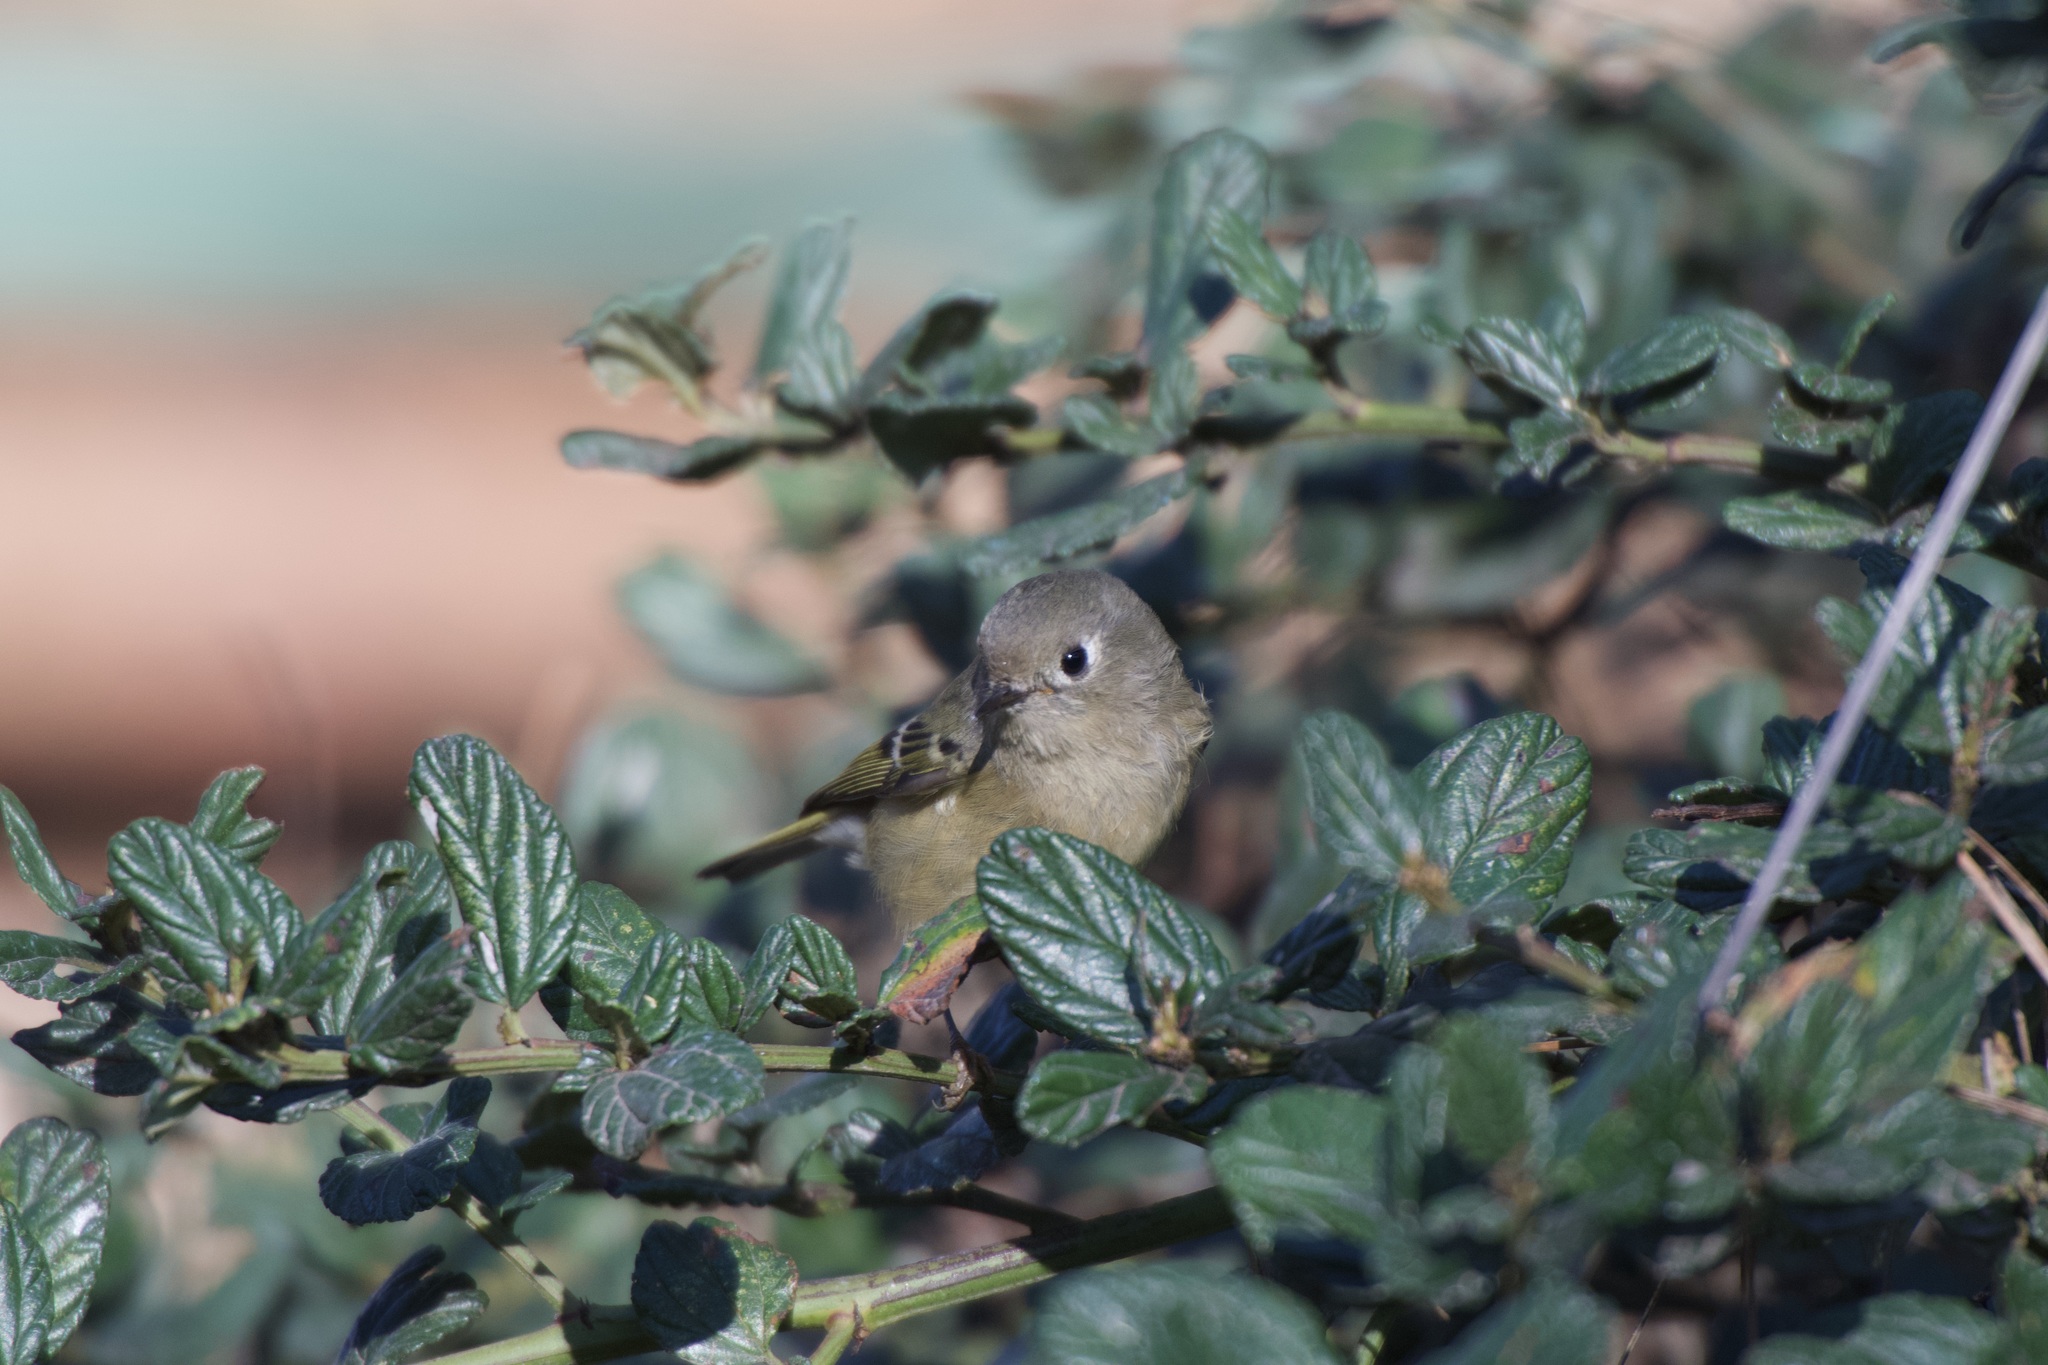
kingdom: Animalia
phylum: Chordata
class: Aves
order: Passeriformes
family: Regulidae
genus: Regulus
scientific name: Regulus calendula
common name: Ruby-crowned kinglet
